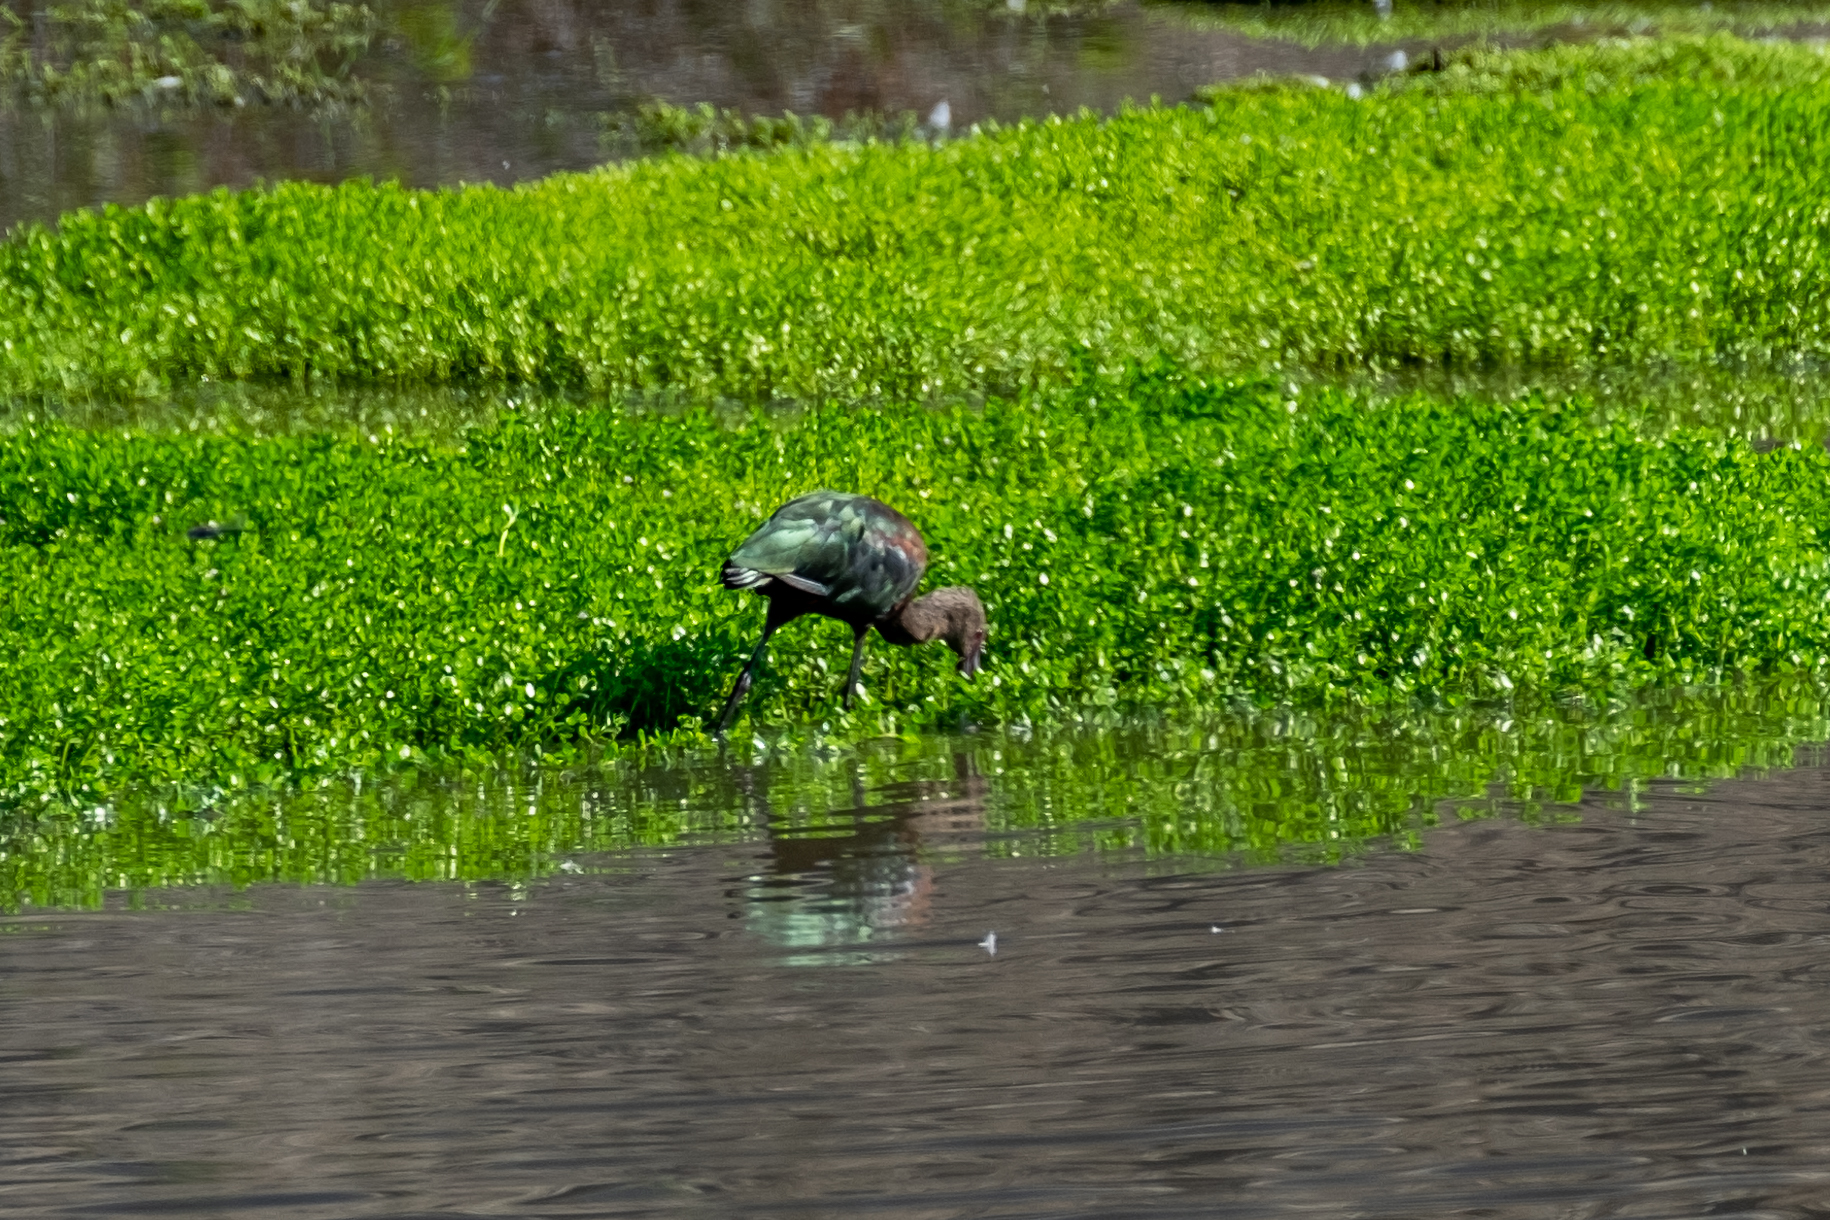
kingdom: Animalia
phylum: Chordata
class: Aves
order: Pelecaniformes
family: Threskiornithidae
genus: Plegadis
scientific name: Plegadis chihi
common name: White-faced ibis
